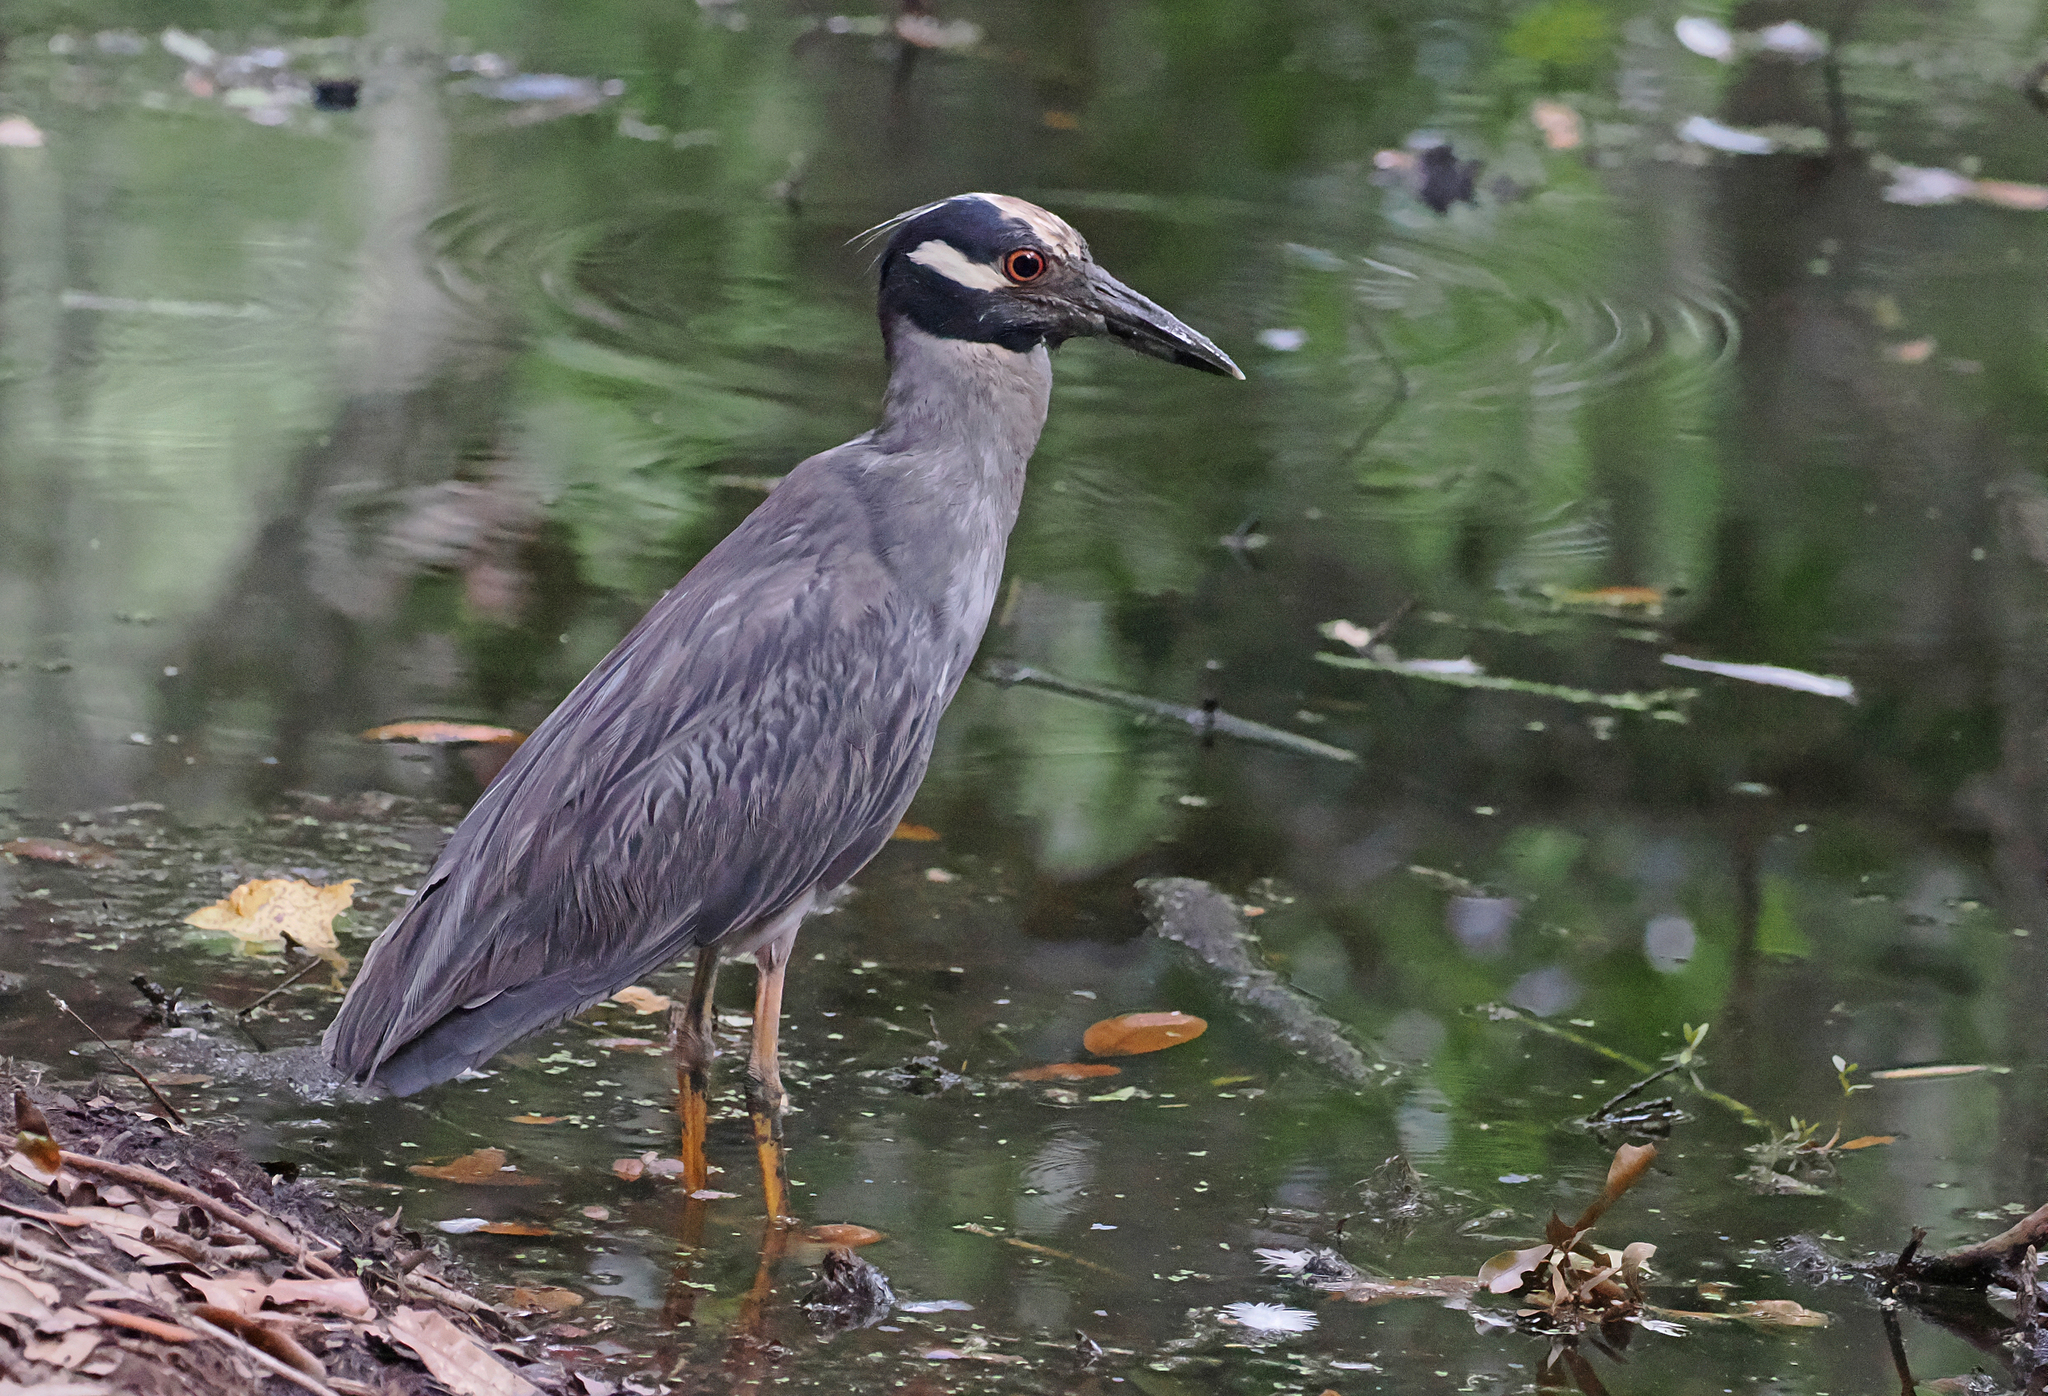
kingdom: Animalia
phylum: Chordata
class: Aves
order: Pelecaniformes
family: Ardeidae
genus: Nyctanassa
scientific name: Nyctanassa violacea
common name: Yellow-crowned night heron
